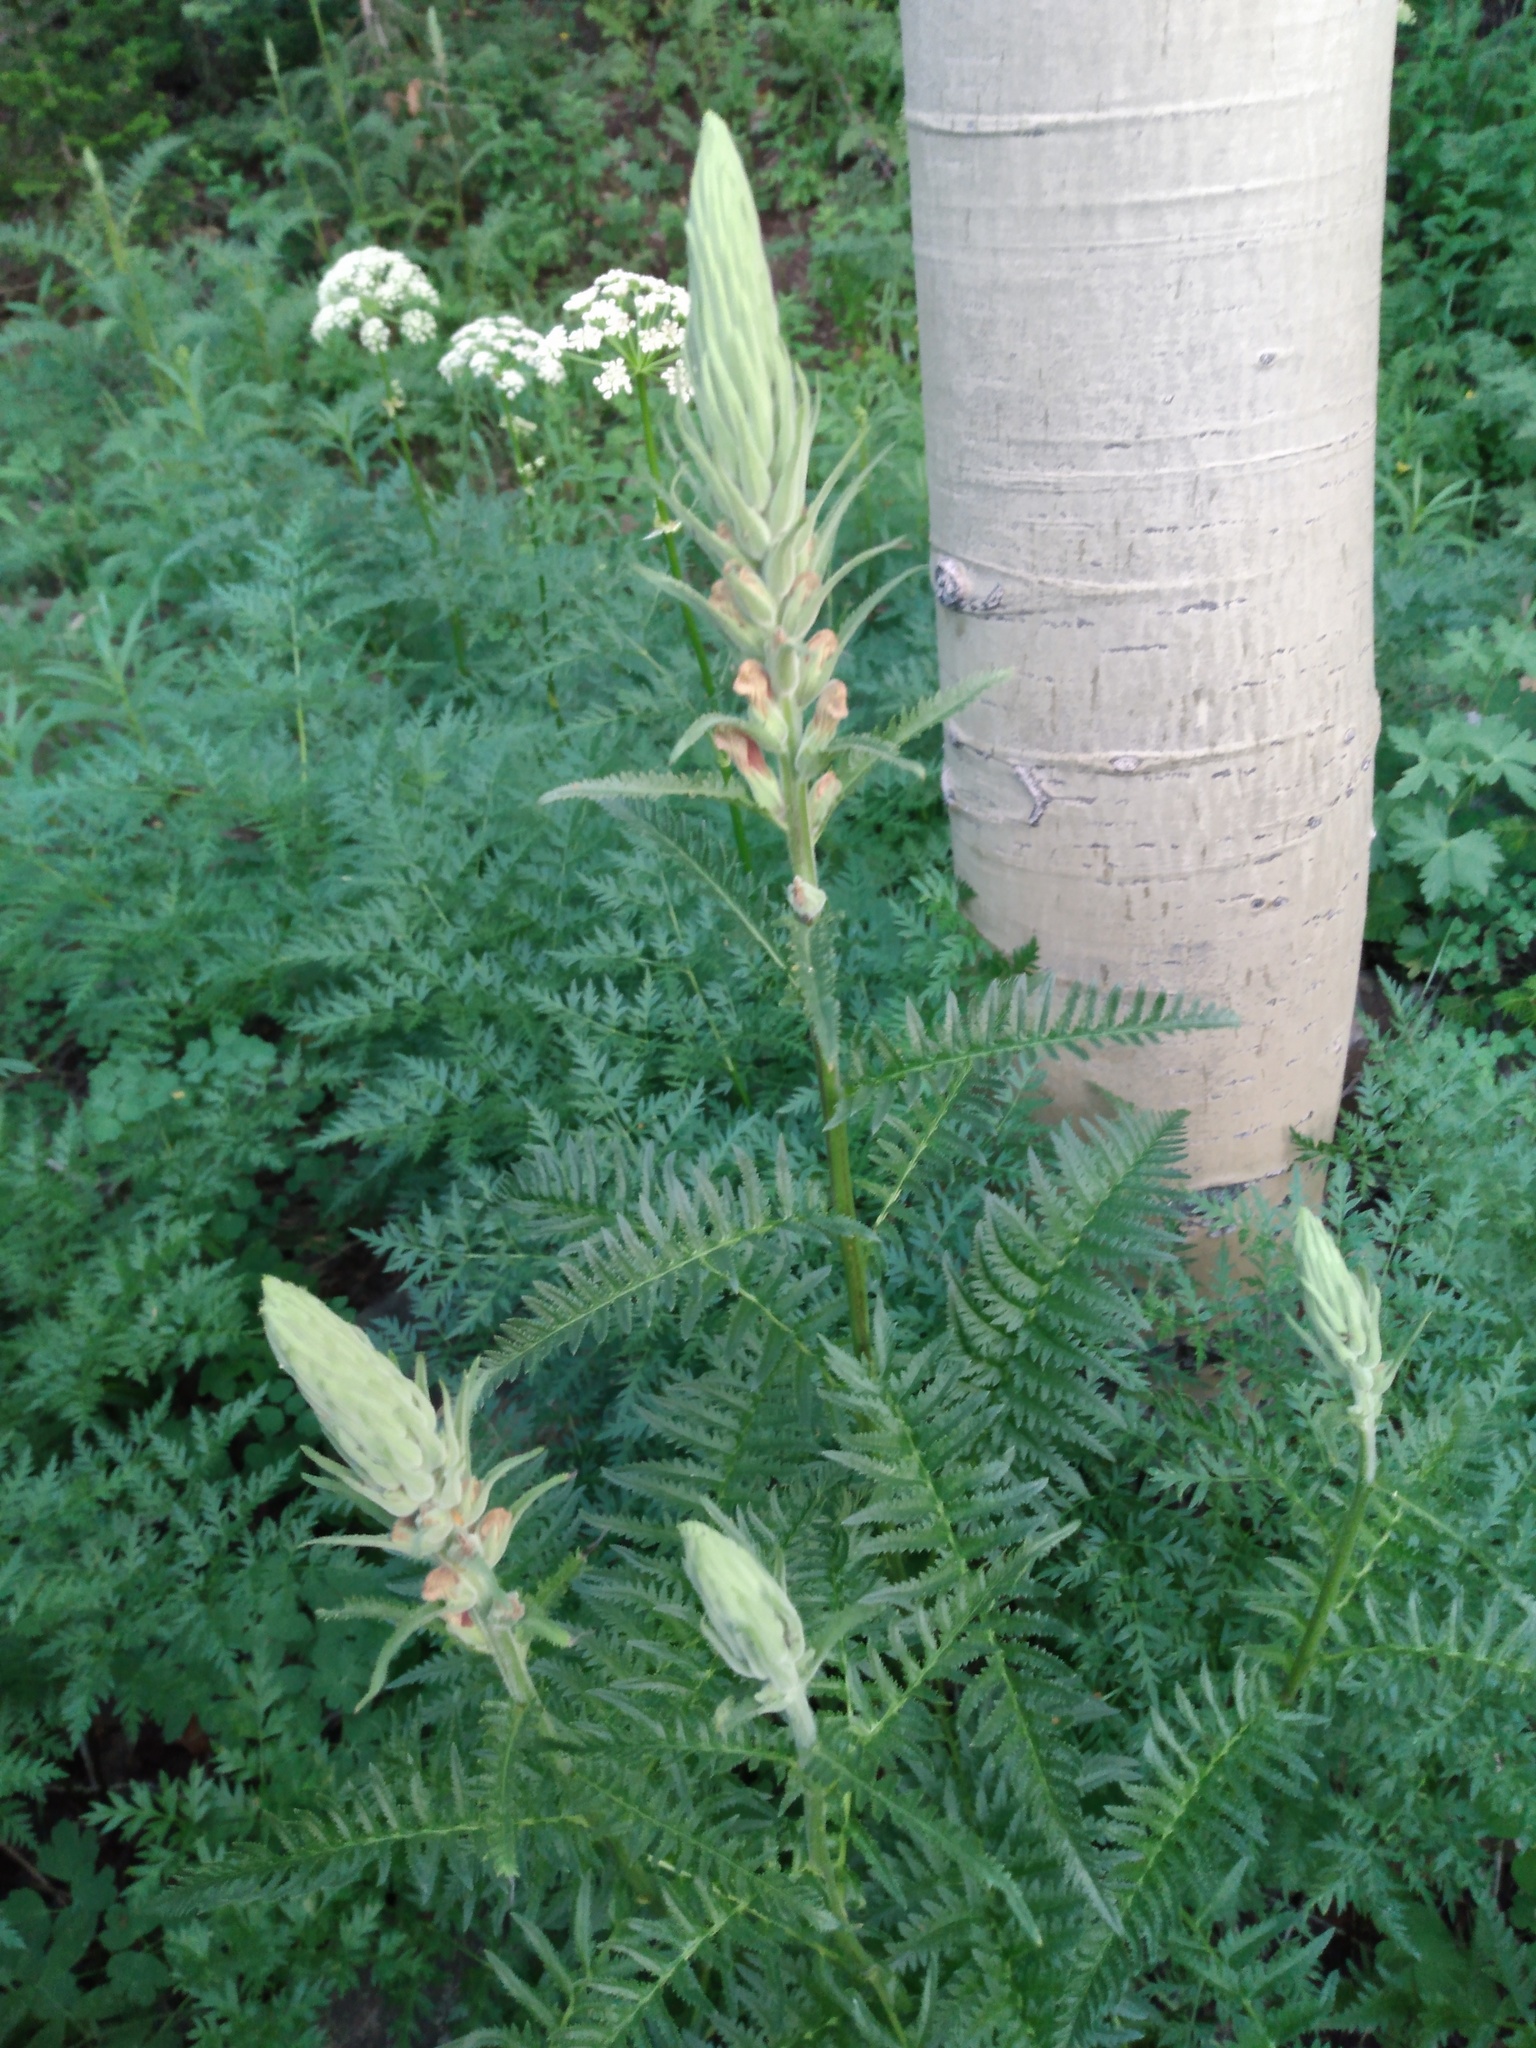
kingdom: Plantae
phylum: Tracheophyta
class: Magnoliopsida
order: Lamiales
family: Orobanchaceae
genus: Pedicularis
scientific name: Pedicularis procera
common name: Gray's lousewort
